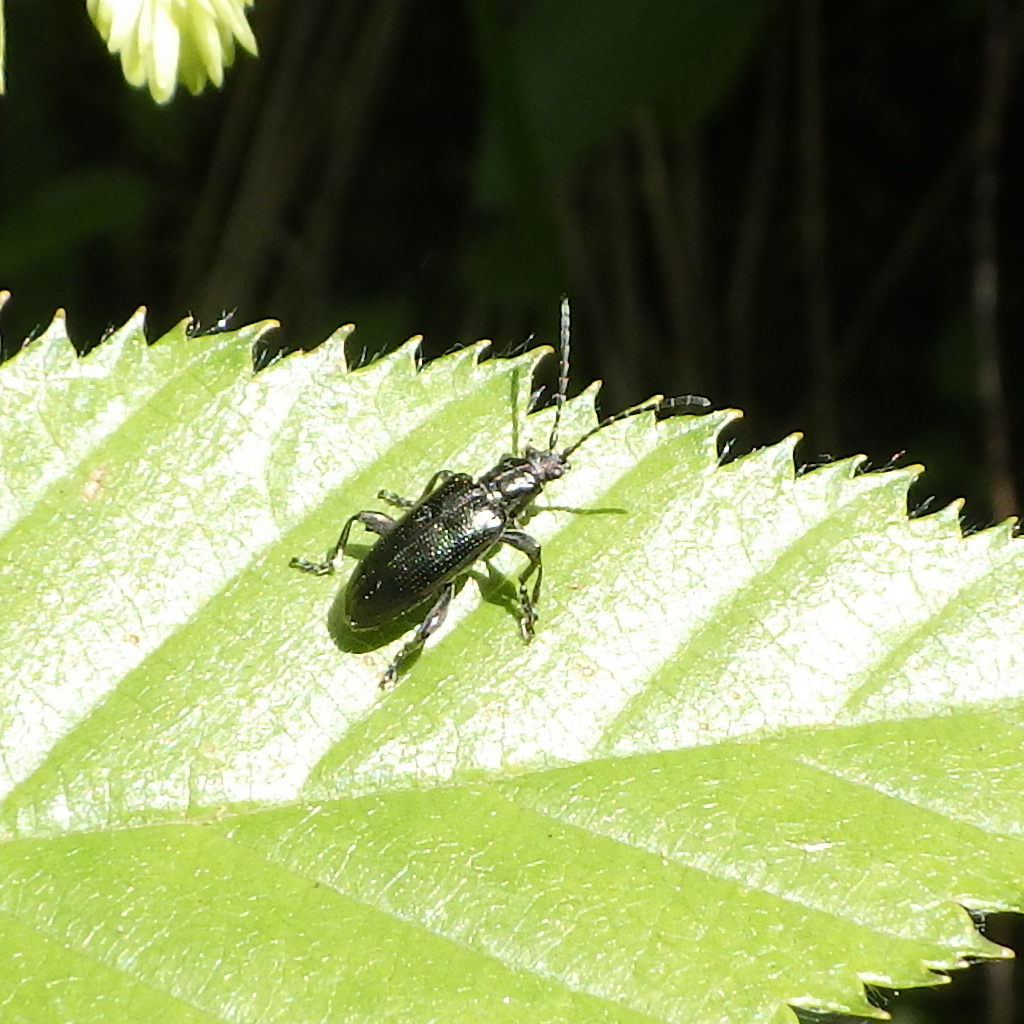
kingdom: Animalia
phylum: Arthropoda
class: Insecta
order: Coleoptera
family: Tenebrionidae
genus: Arthromacra
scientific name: Arthromacra aenea
